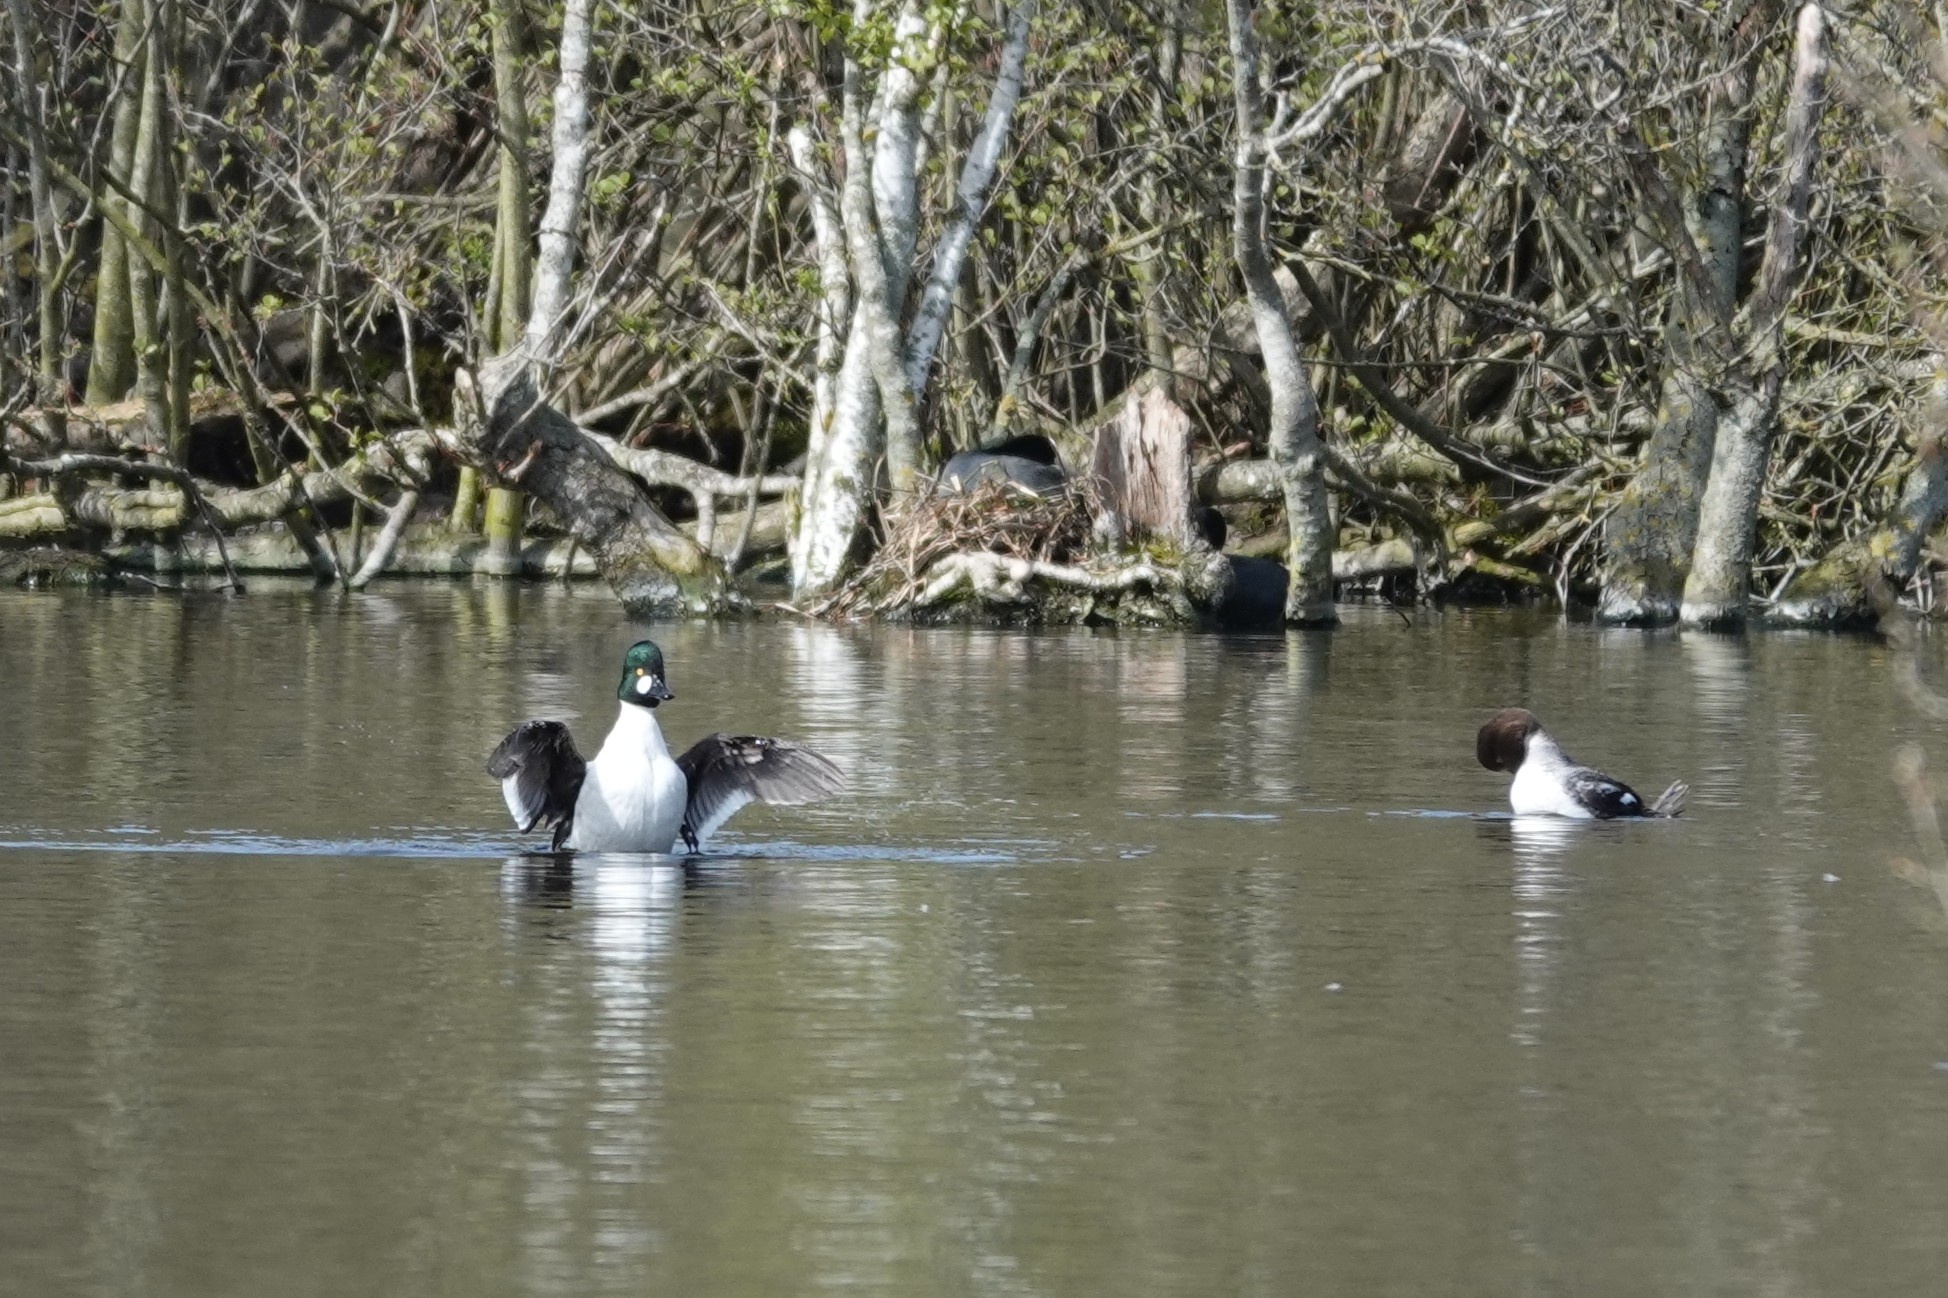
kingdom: Animalia
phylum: Chordata
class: Aves
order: Anseriformes
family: Anatidae
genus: Bucephala
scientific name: Bucephala clangula
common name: Common goldeneye
